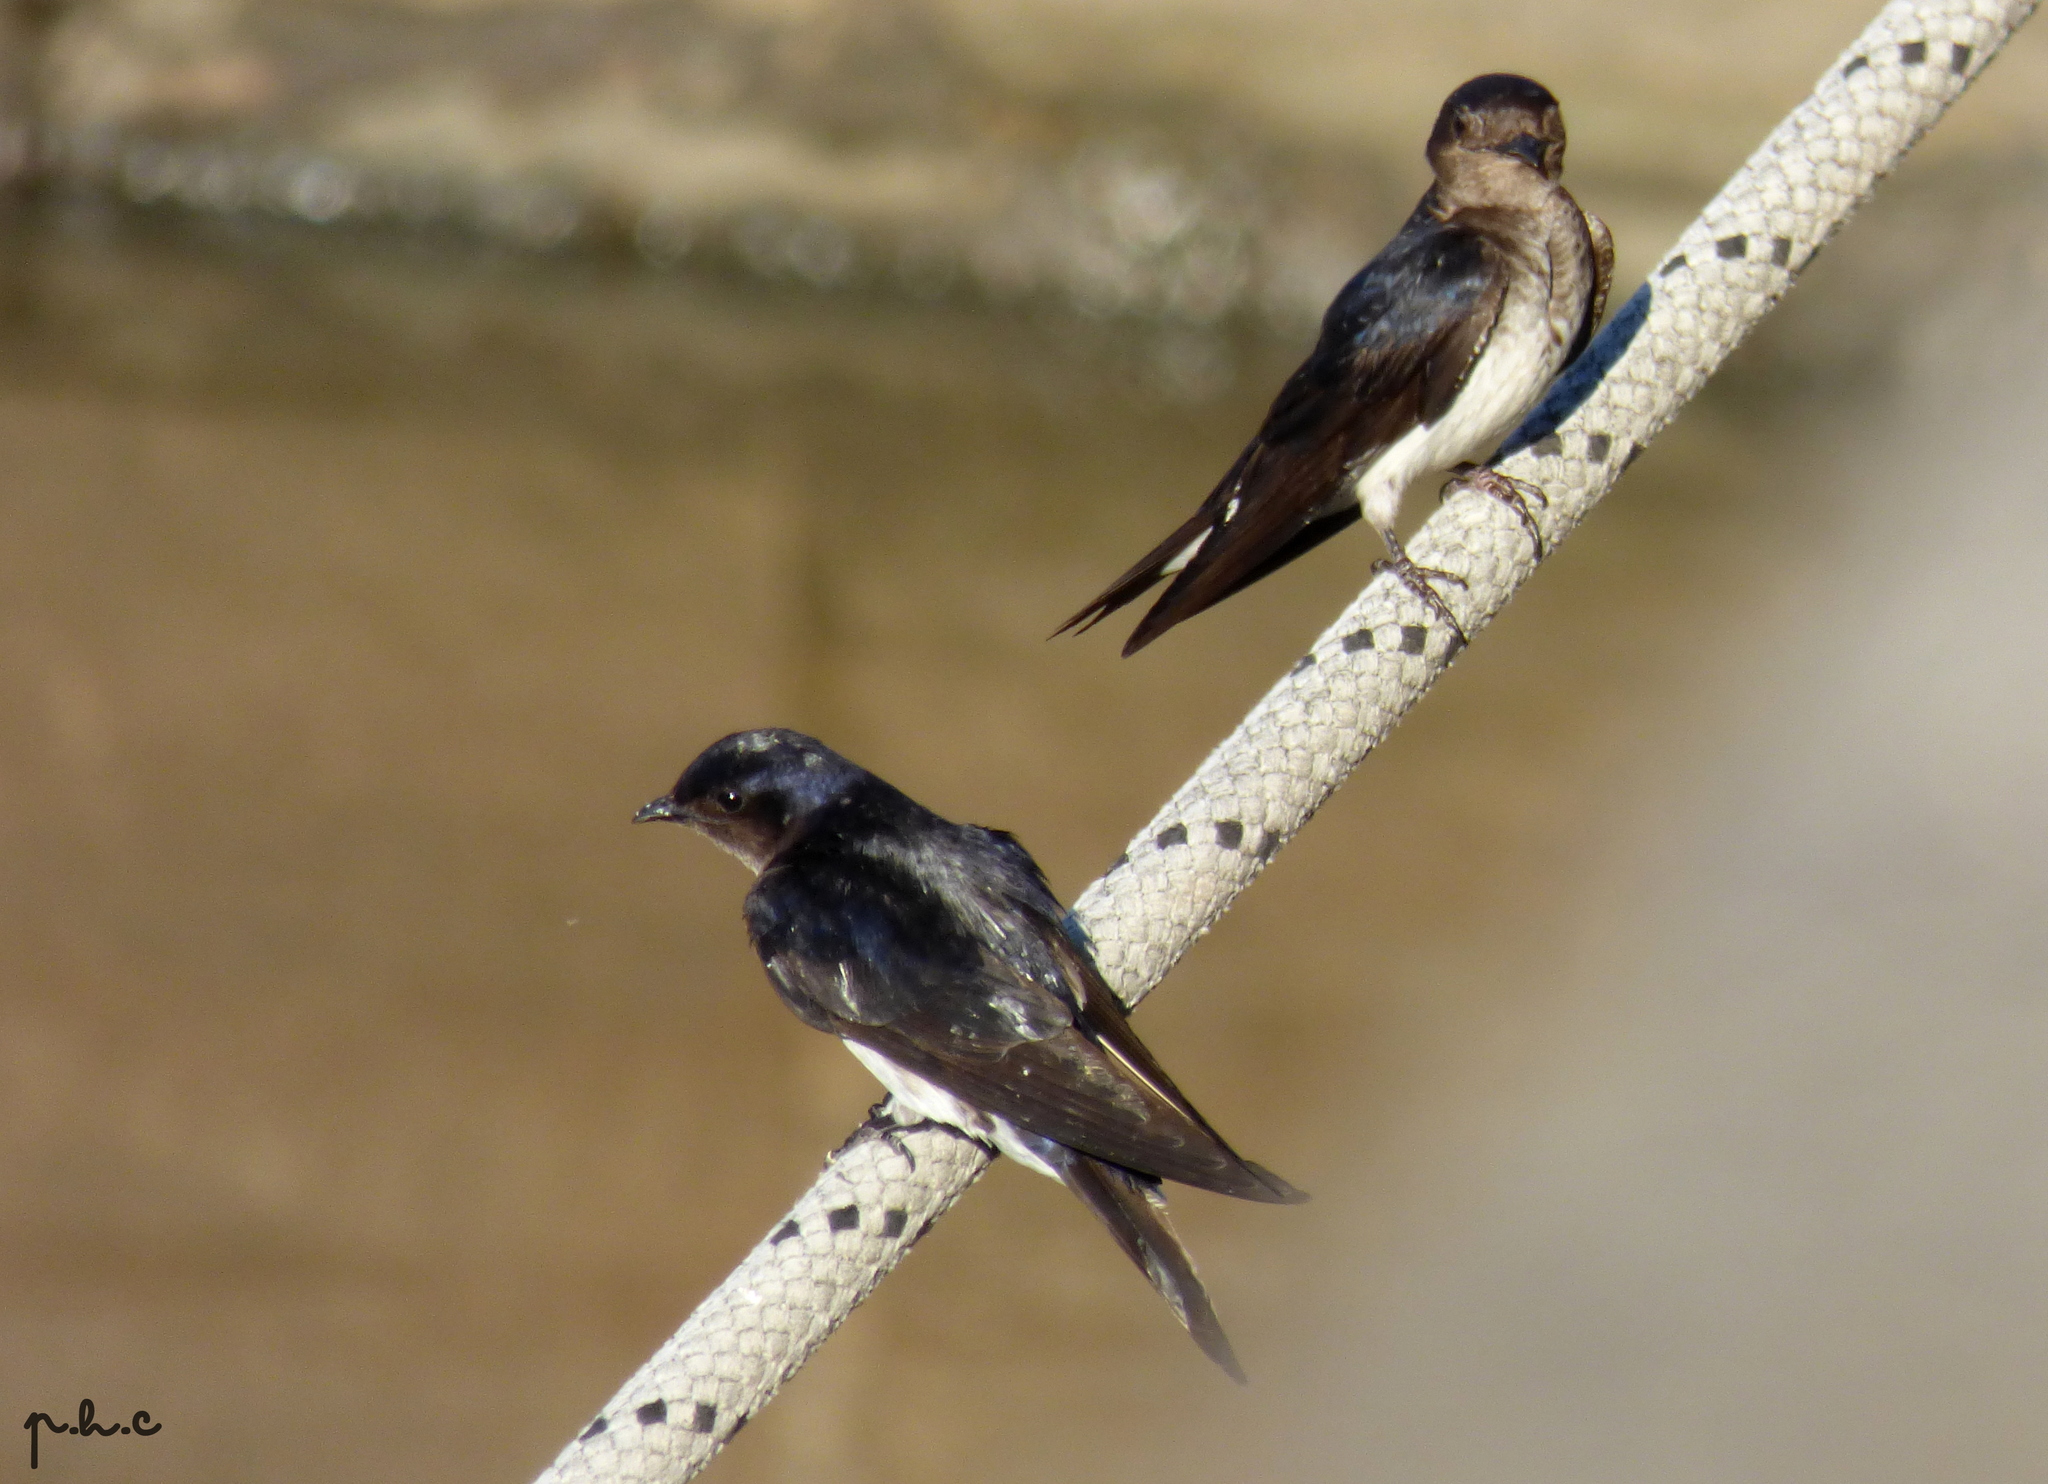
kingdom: Animalia
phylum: Chordata
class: Aves
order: Passeriformes
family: Hirundinidae
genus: Progne
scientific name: Progne chalybea
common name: Grey-breasted martin
